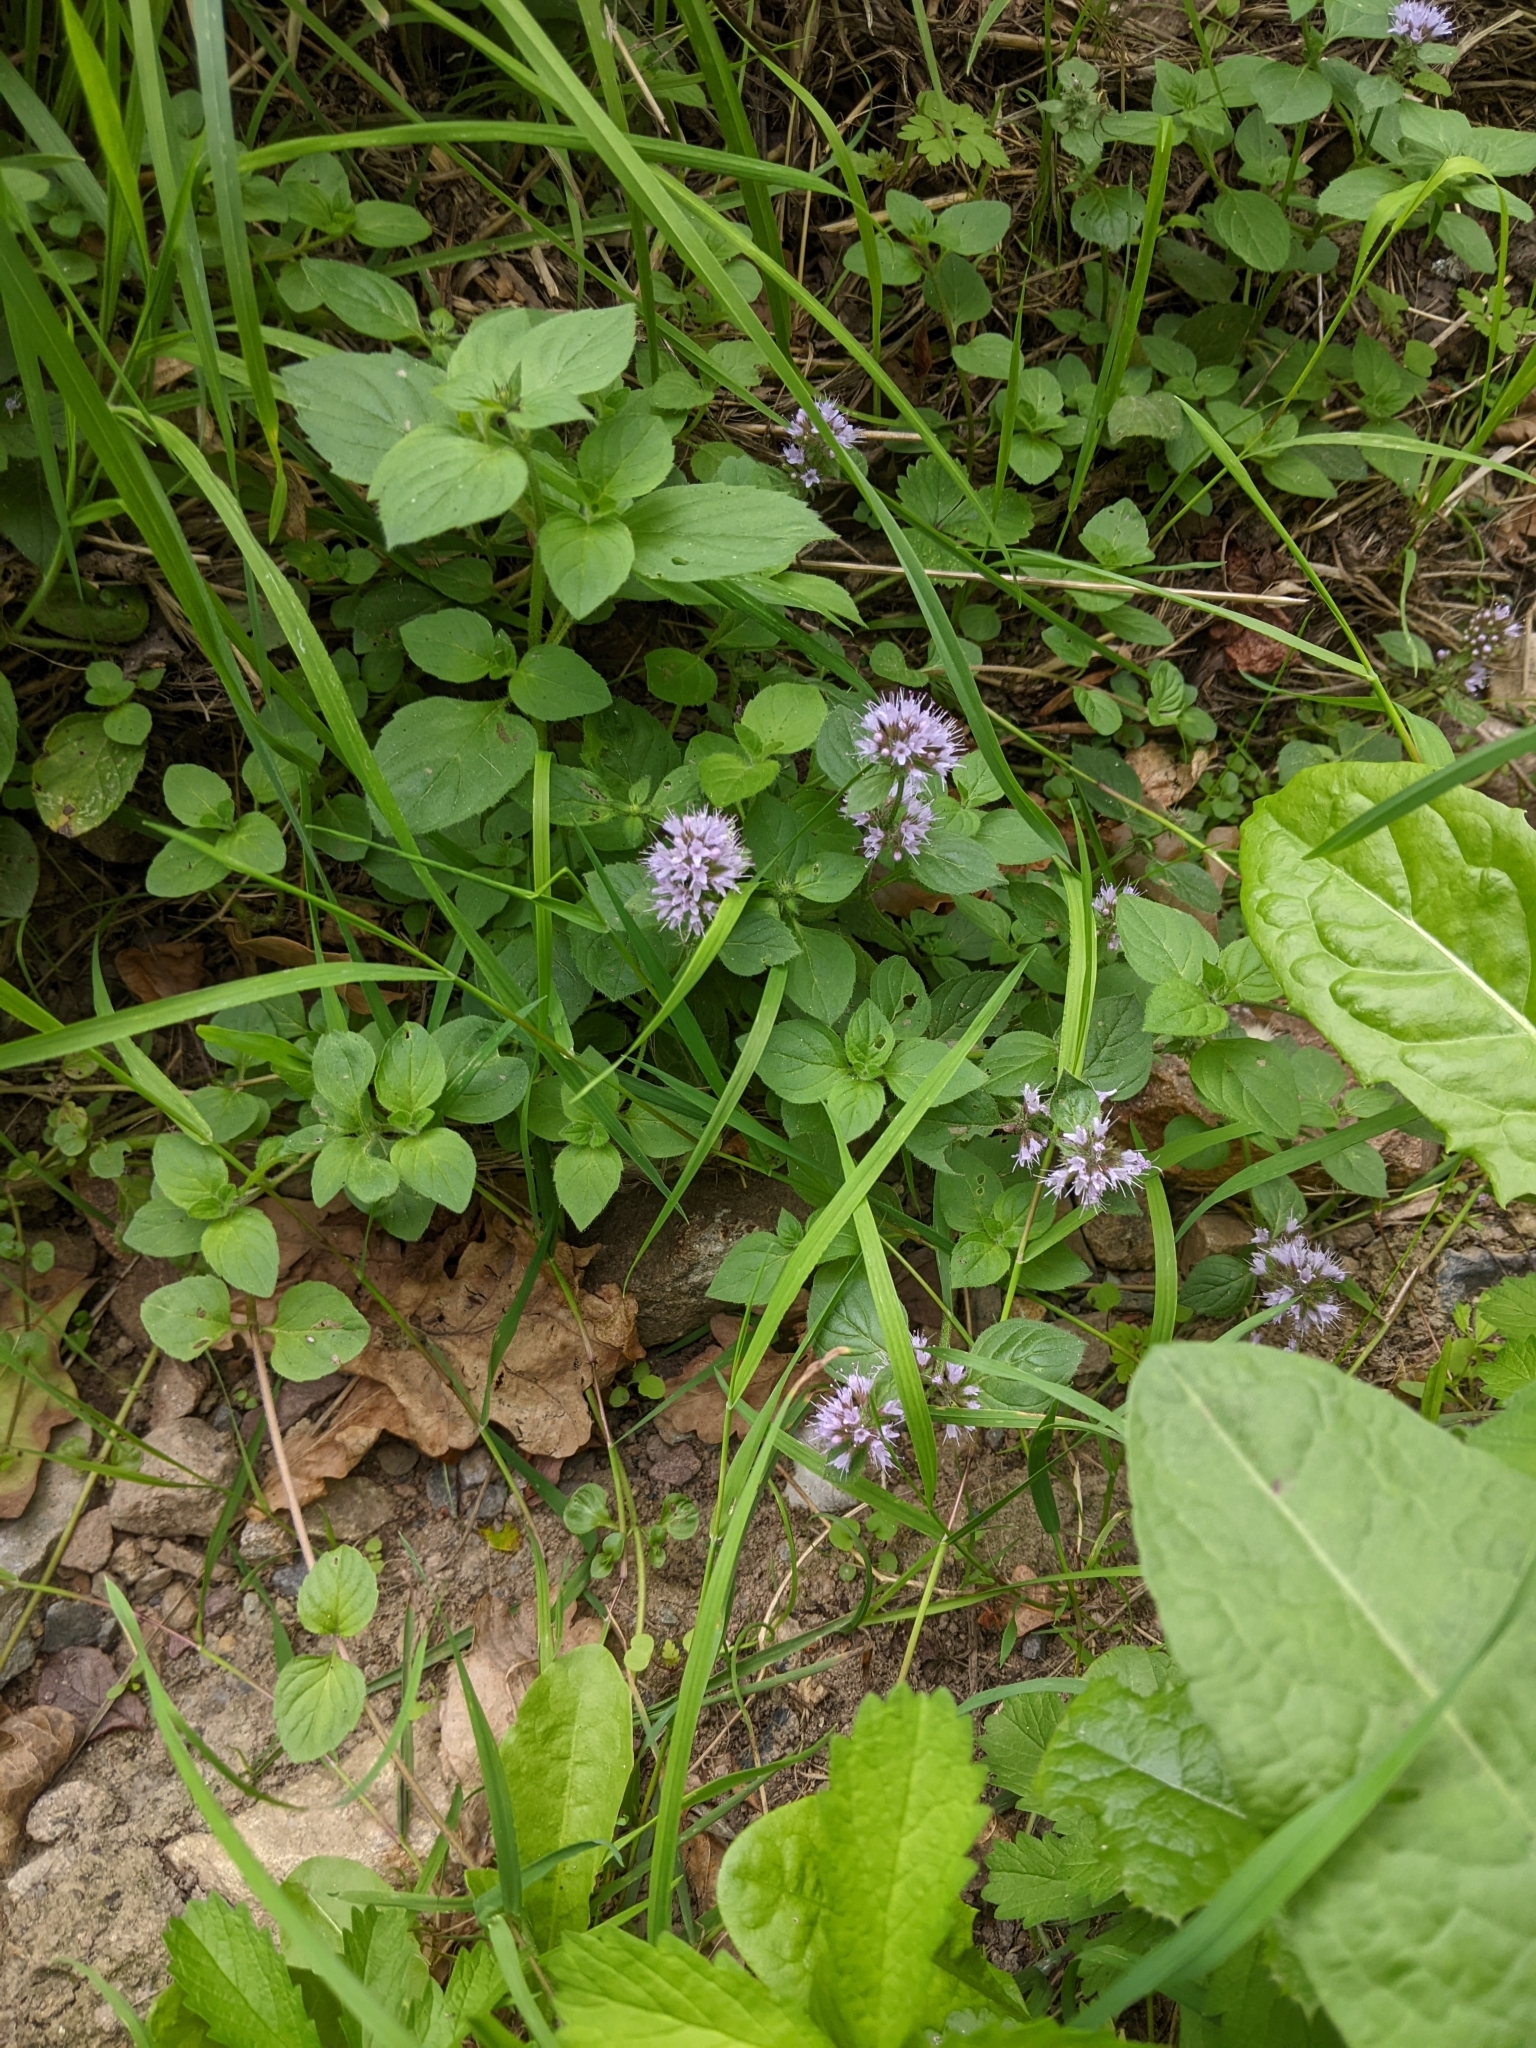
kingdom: Plantae
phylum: Tracheophyta
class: Magnoliopsida
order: Lamiales
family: Lamiaceae
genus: Mentha
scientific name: Mentha aquatica
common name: Water mint
